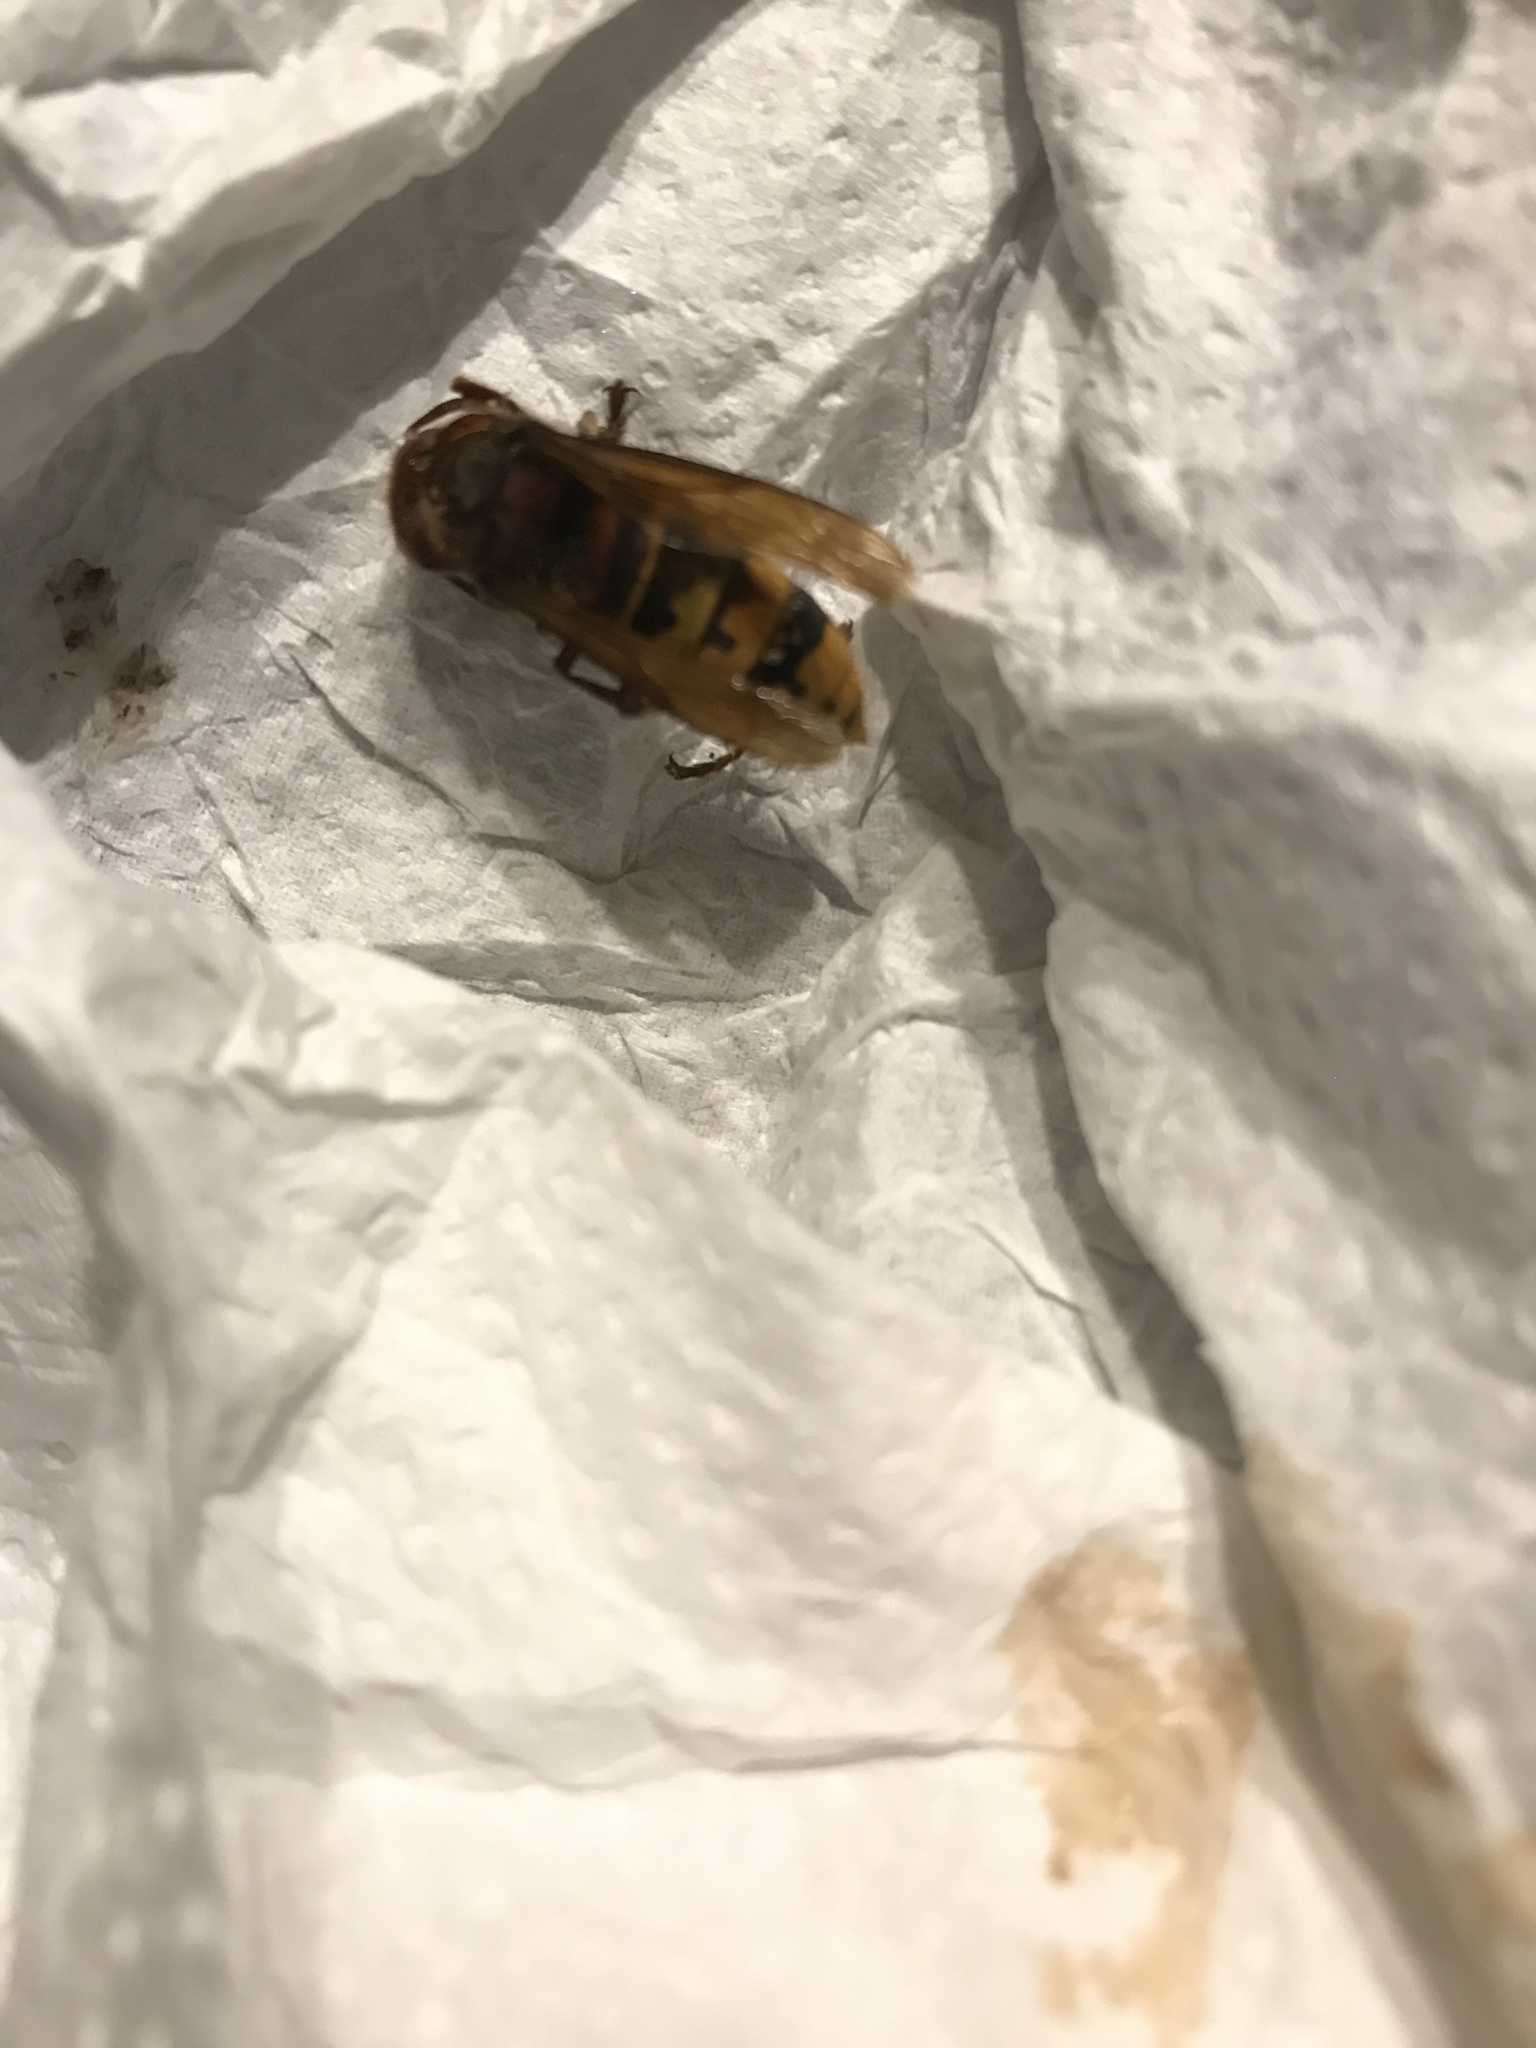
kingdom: Animalia
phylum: Arthropoda
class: Insecta
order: Hymenoptera
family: Vespidae
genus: Vespa
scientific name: Vespa crabro
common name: Hornet
